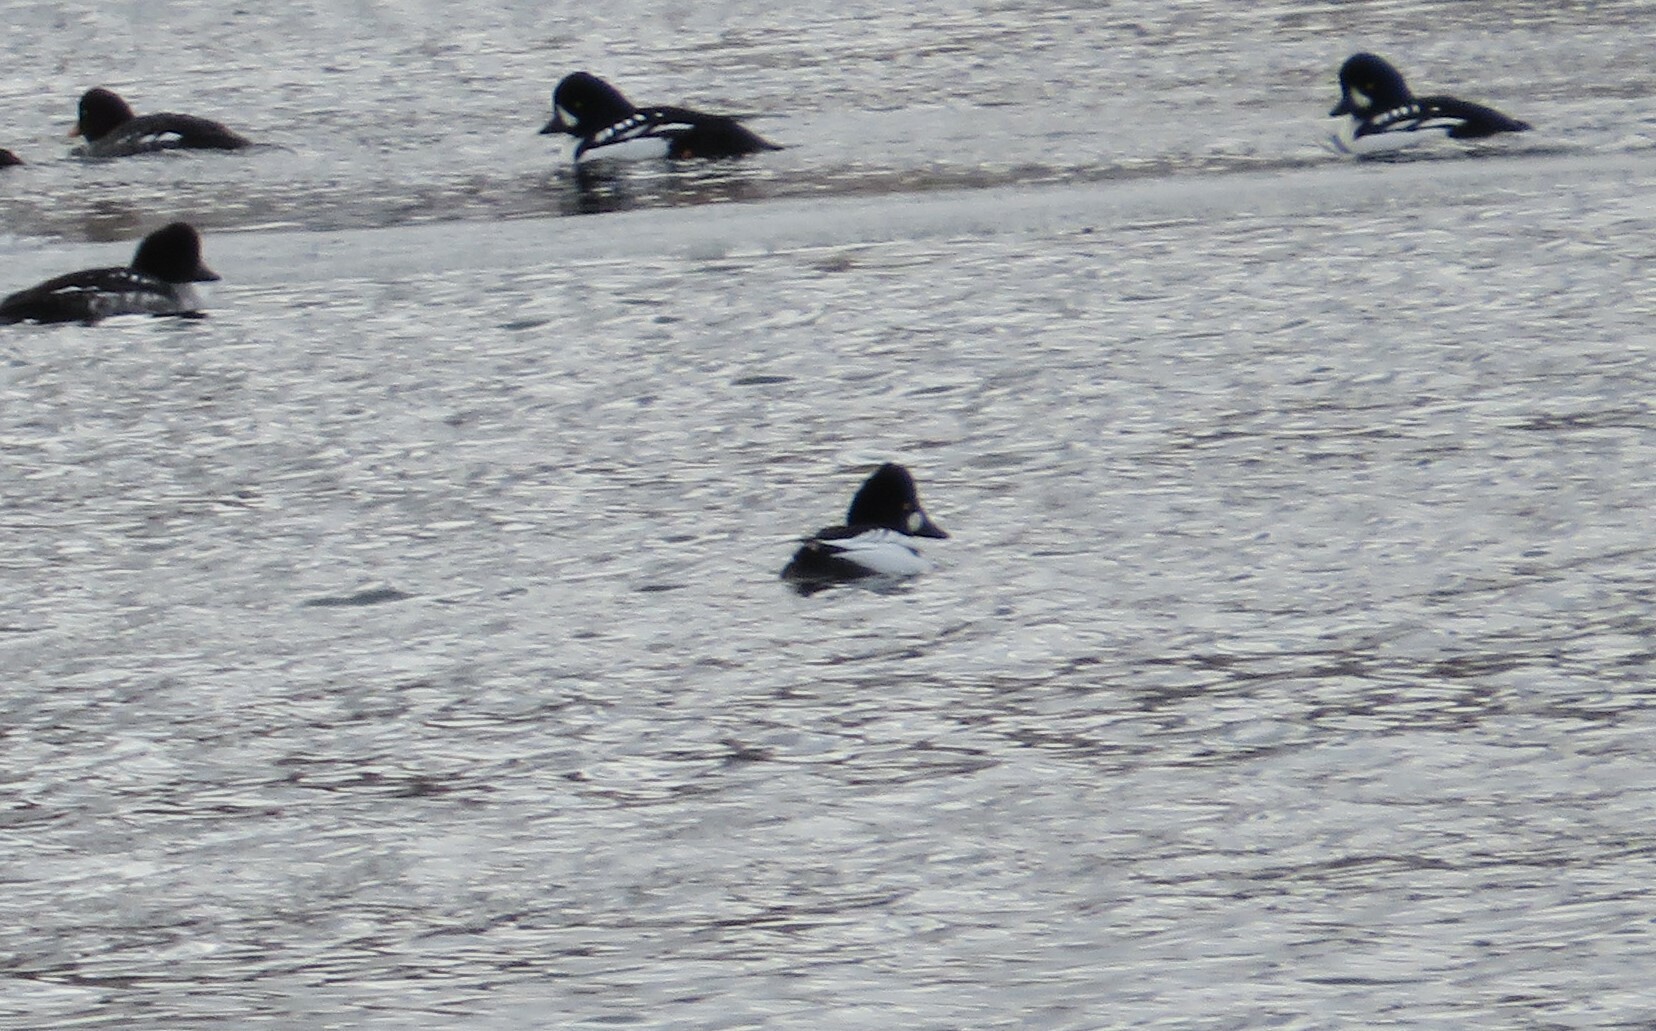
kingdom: Animalia
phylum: Chordata
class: Aves
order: Anseriformes
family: Anatidae
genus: Bucephala
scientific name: Bucephala clangula
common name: Common goldeneye
